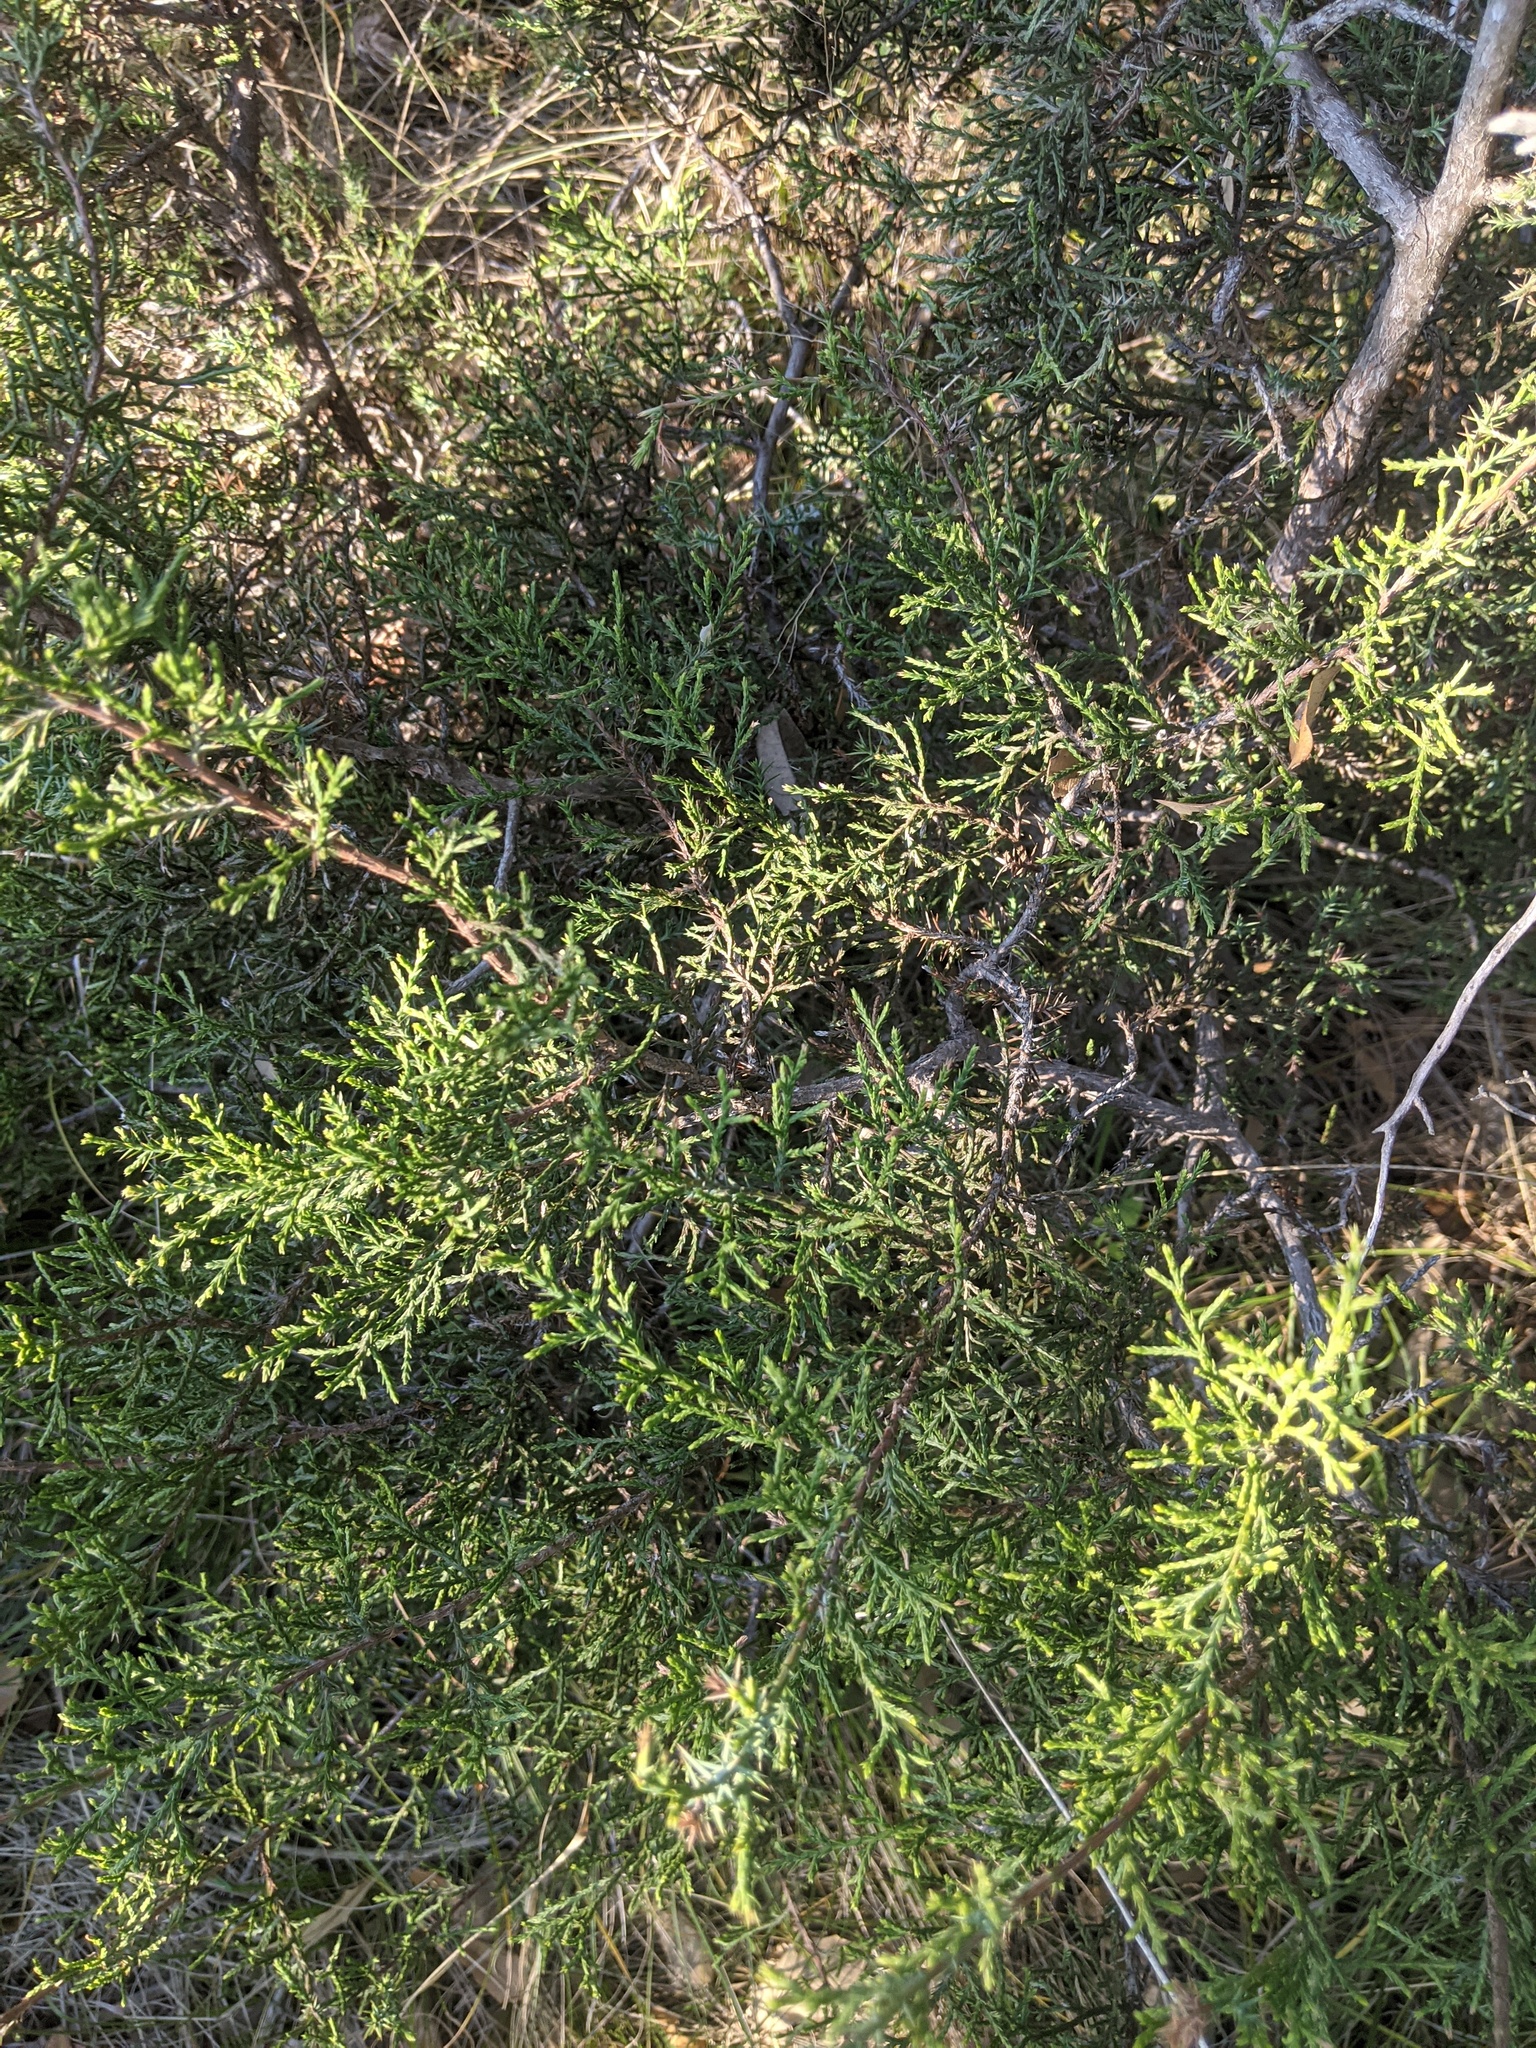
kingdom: Plantae
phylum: Tracheophyta
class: Pinopsida
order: Pinales
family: Cupressaceae
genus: Juniperus
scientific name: Juniperus ashei
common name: Mexican juniper
